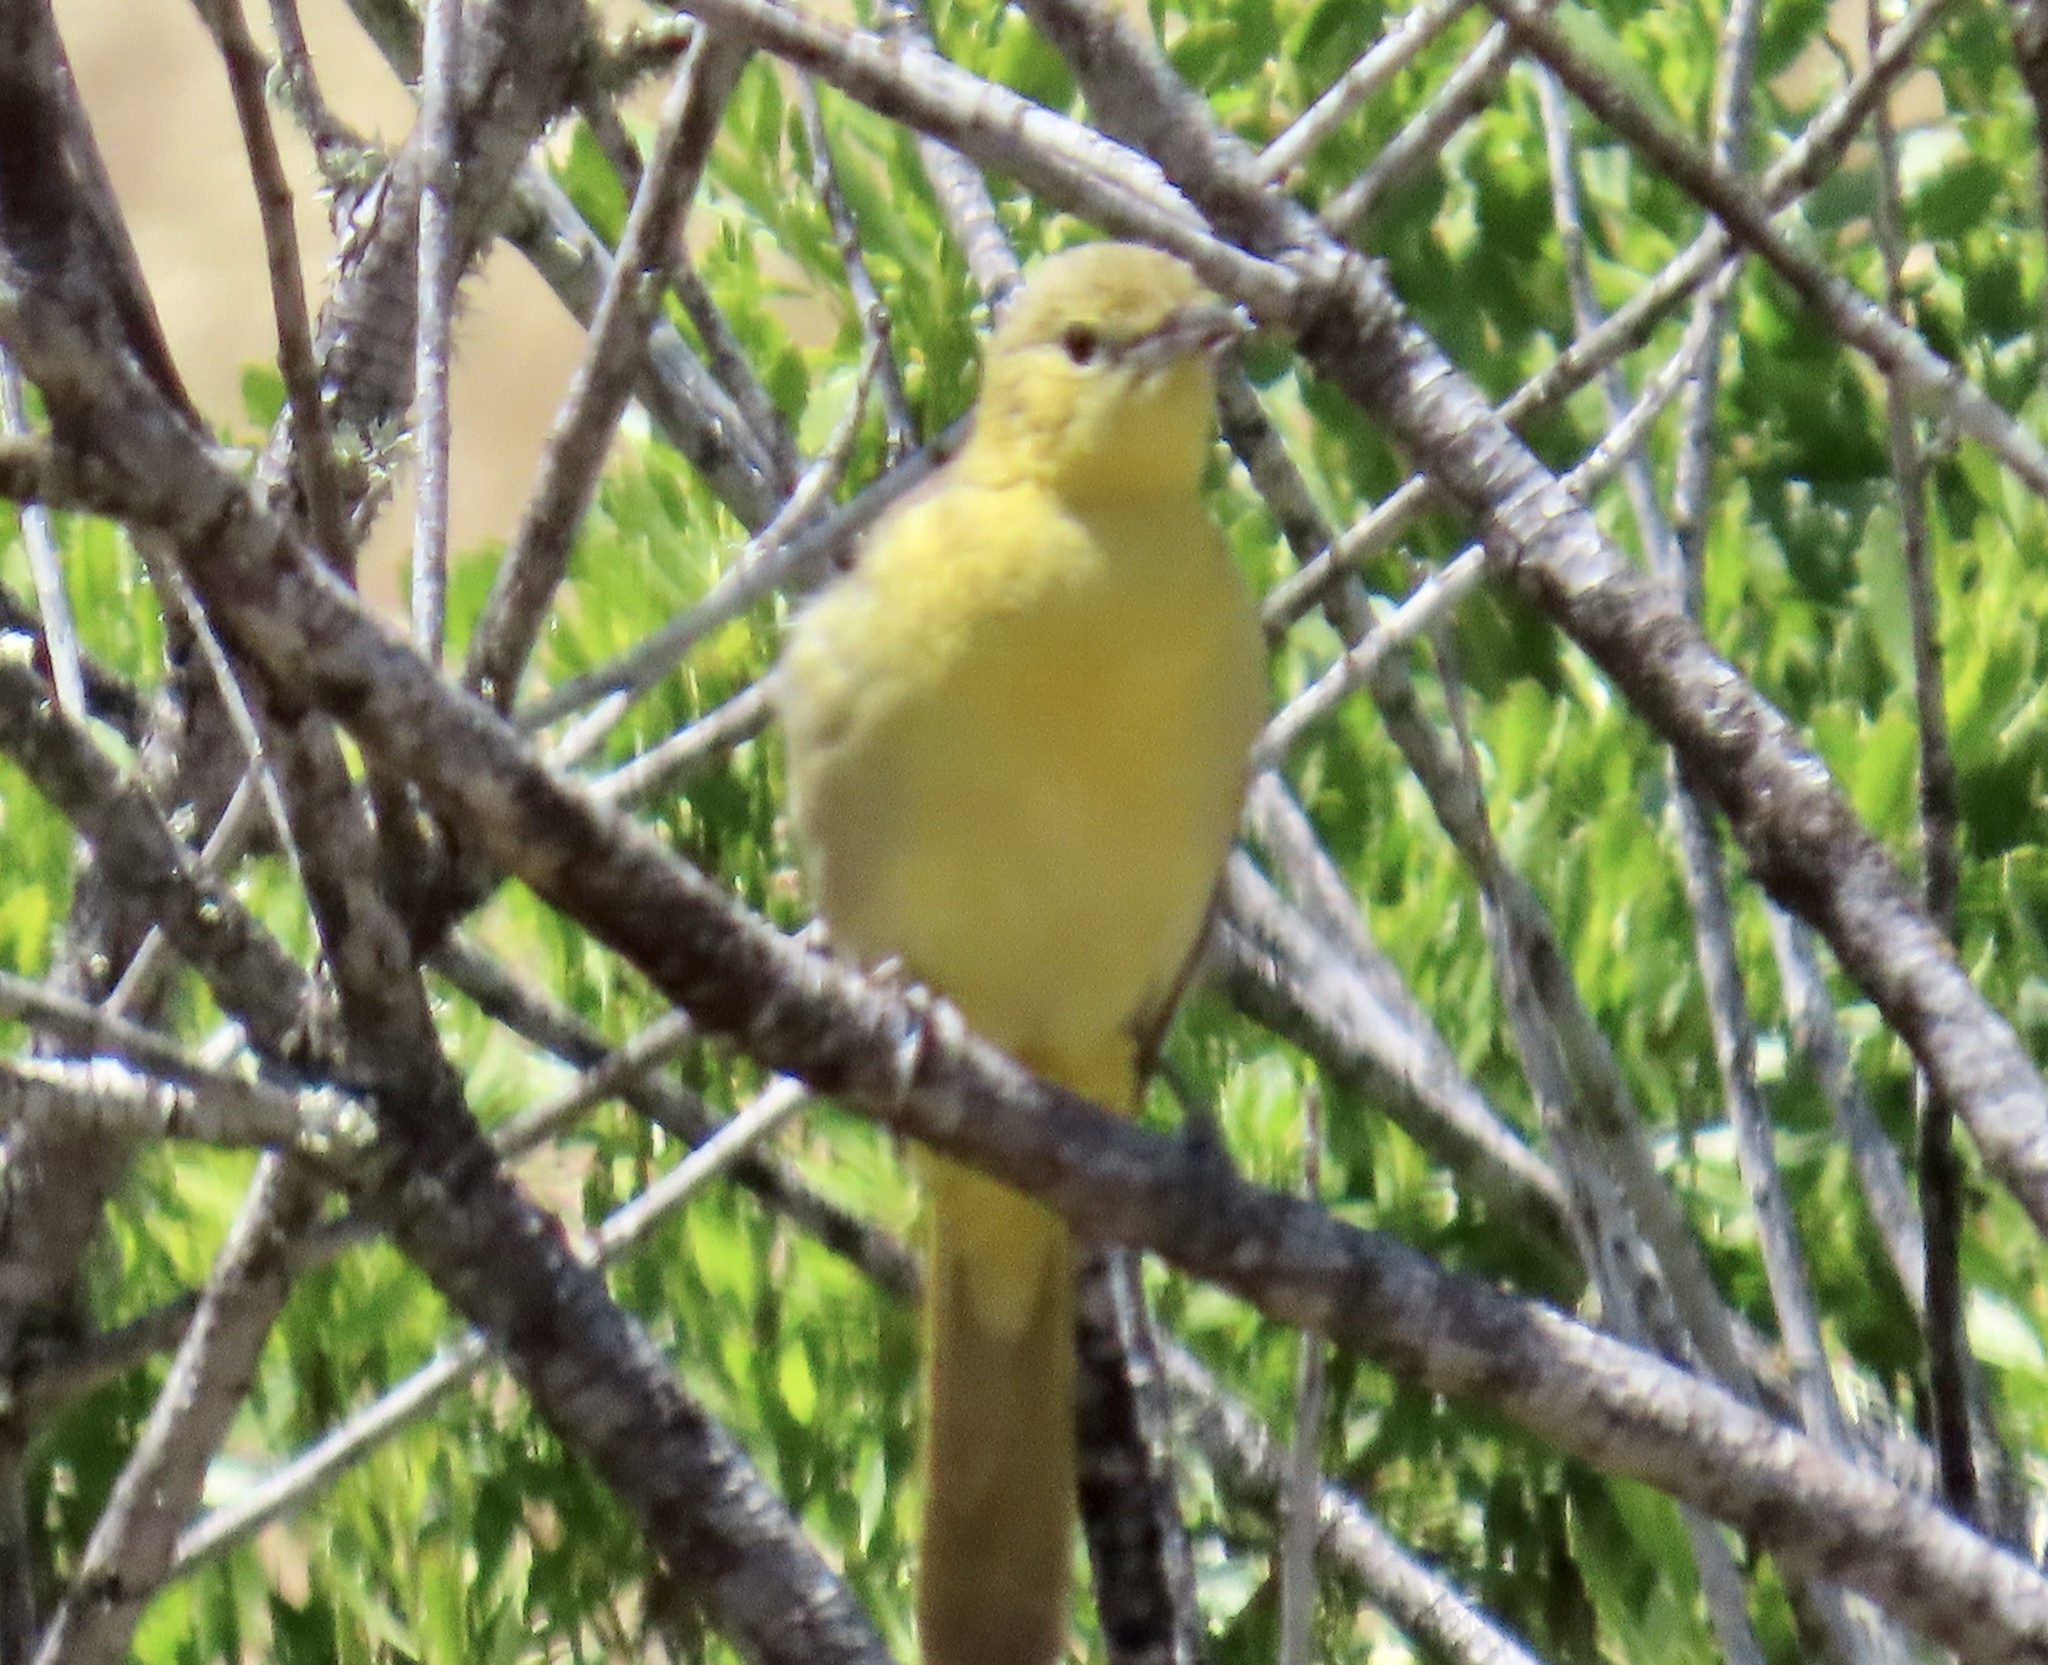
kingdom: Animalia
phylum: Chordata
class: Aves
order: Passeriformes
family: Icteridae
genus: Icterus
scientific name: Icterus cucullatus
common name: Hooded oriole
